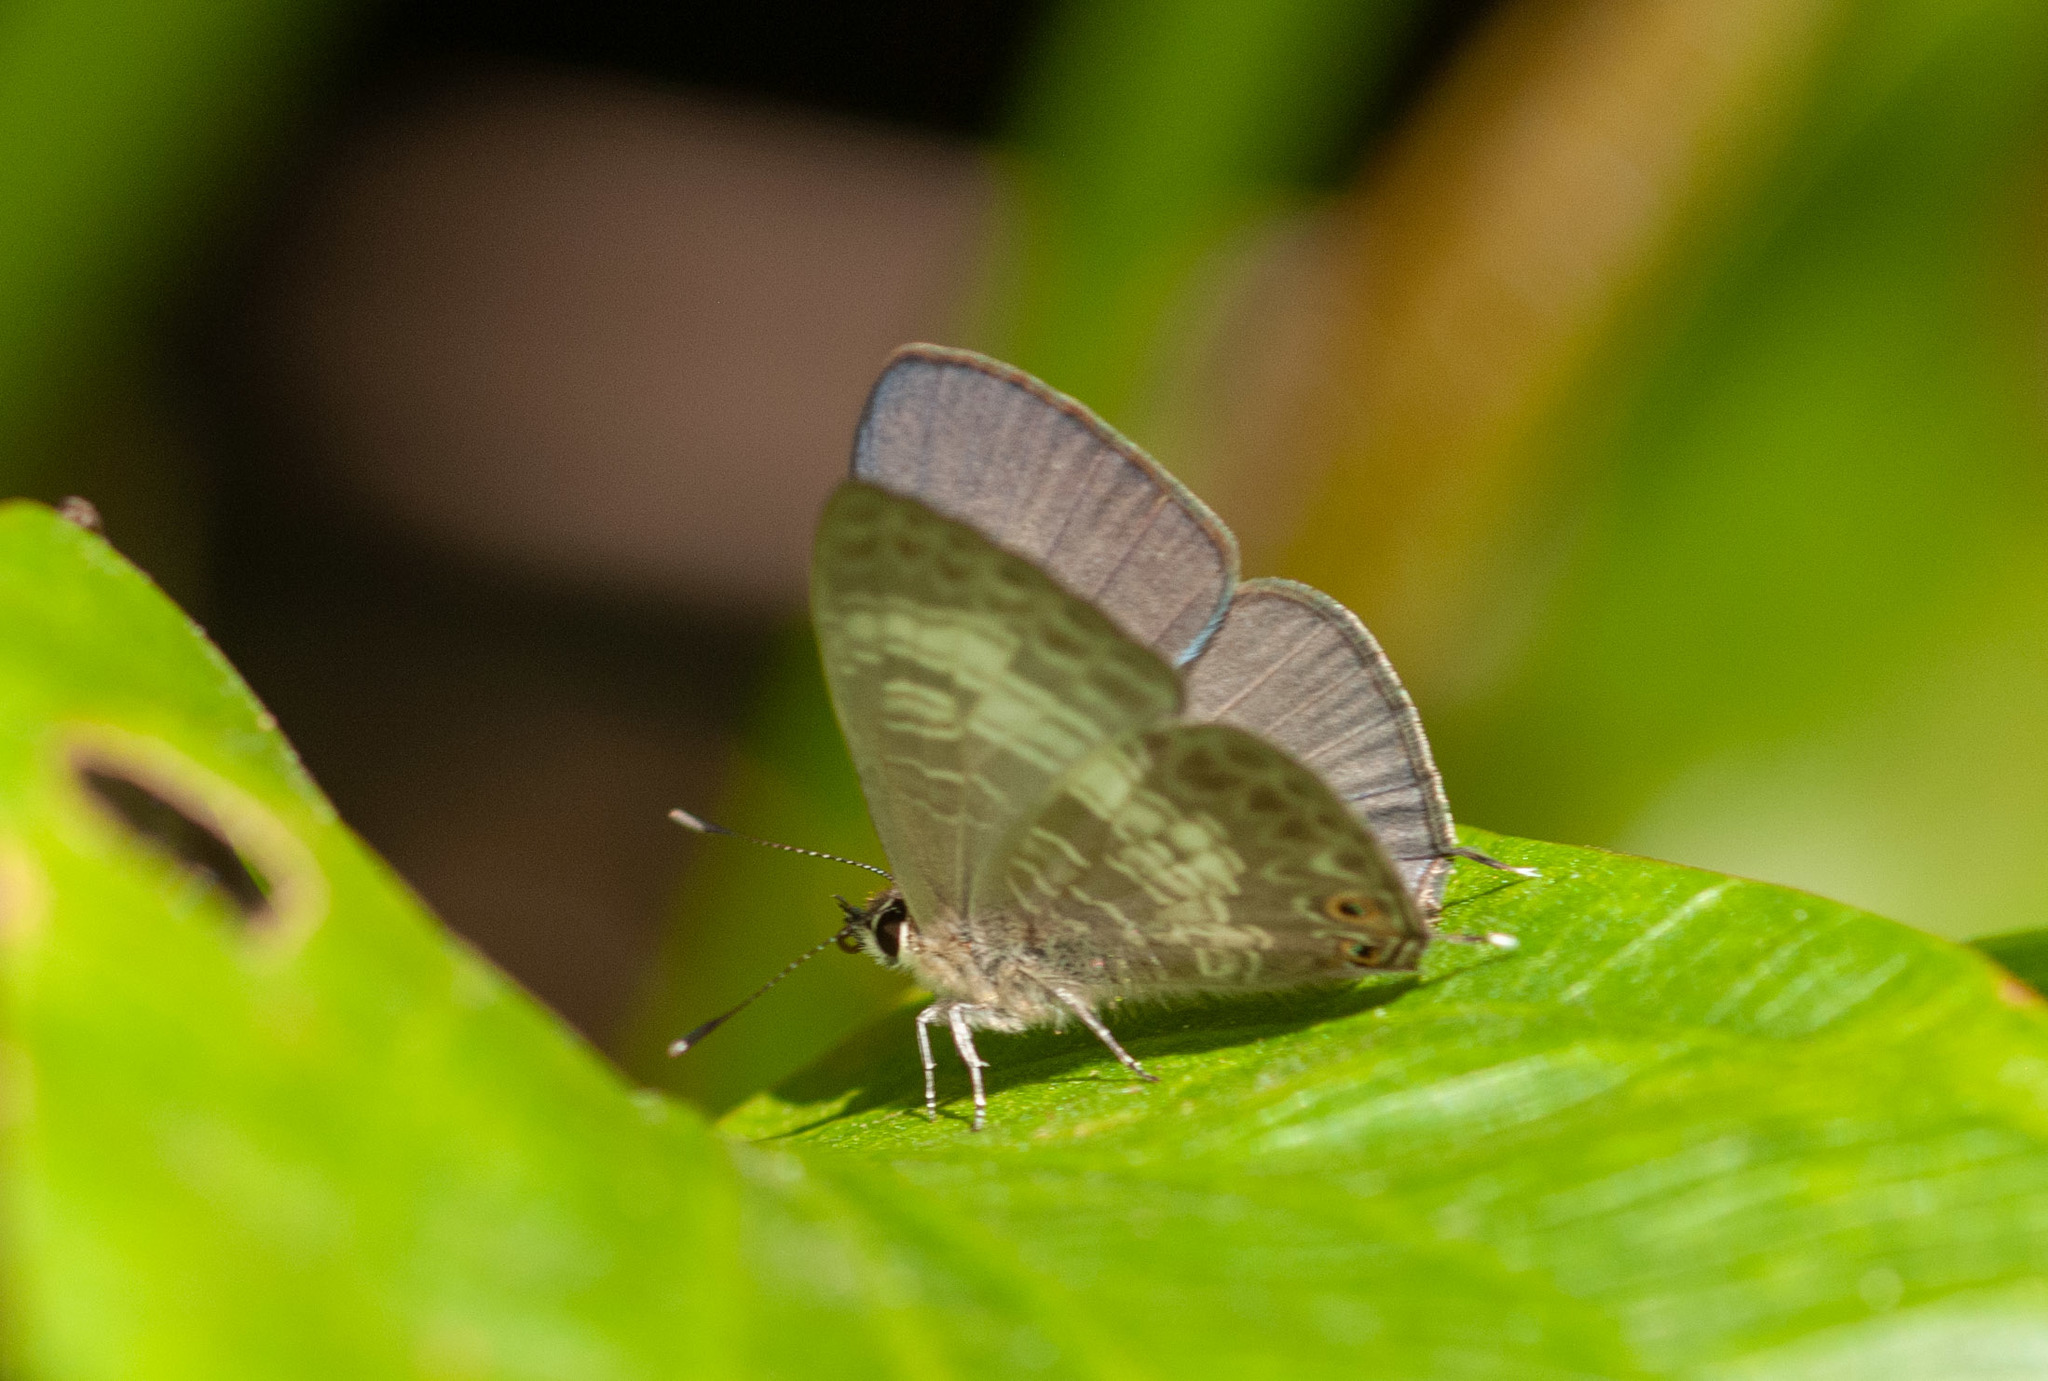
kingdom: Animalia
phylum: Arthropoda
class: Insecta
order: Lepidoptera
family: Lycaenidae
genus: Nacaduba
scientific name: Nacaduba kurava
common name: Transparent 6-line blue
